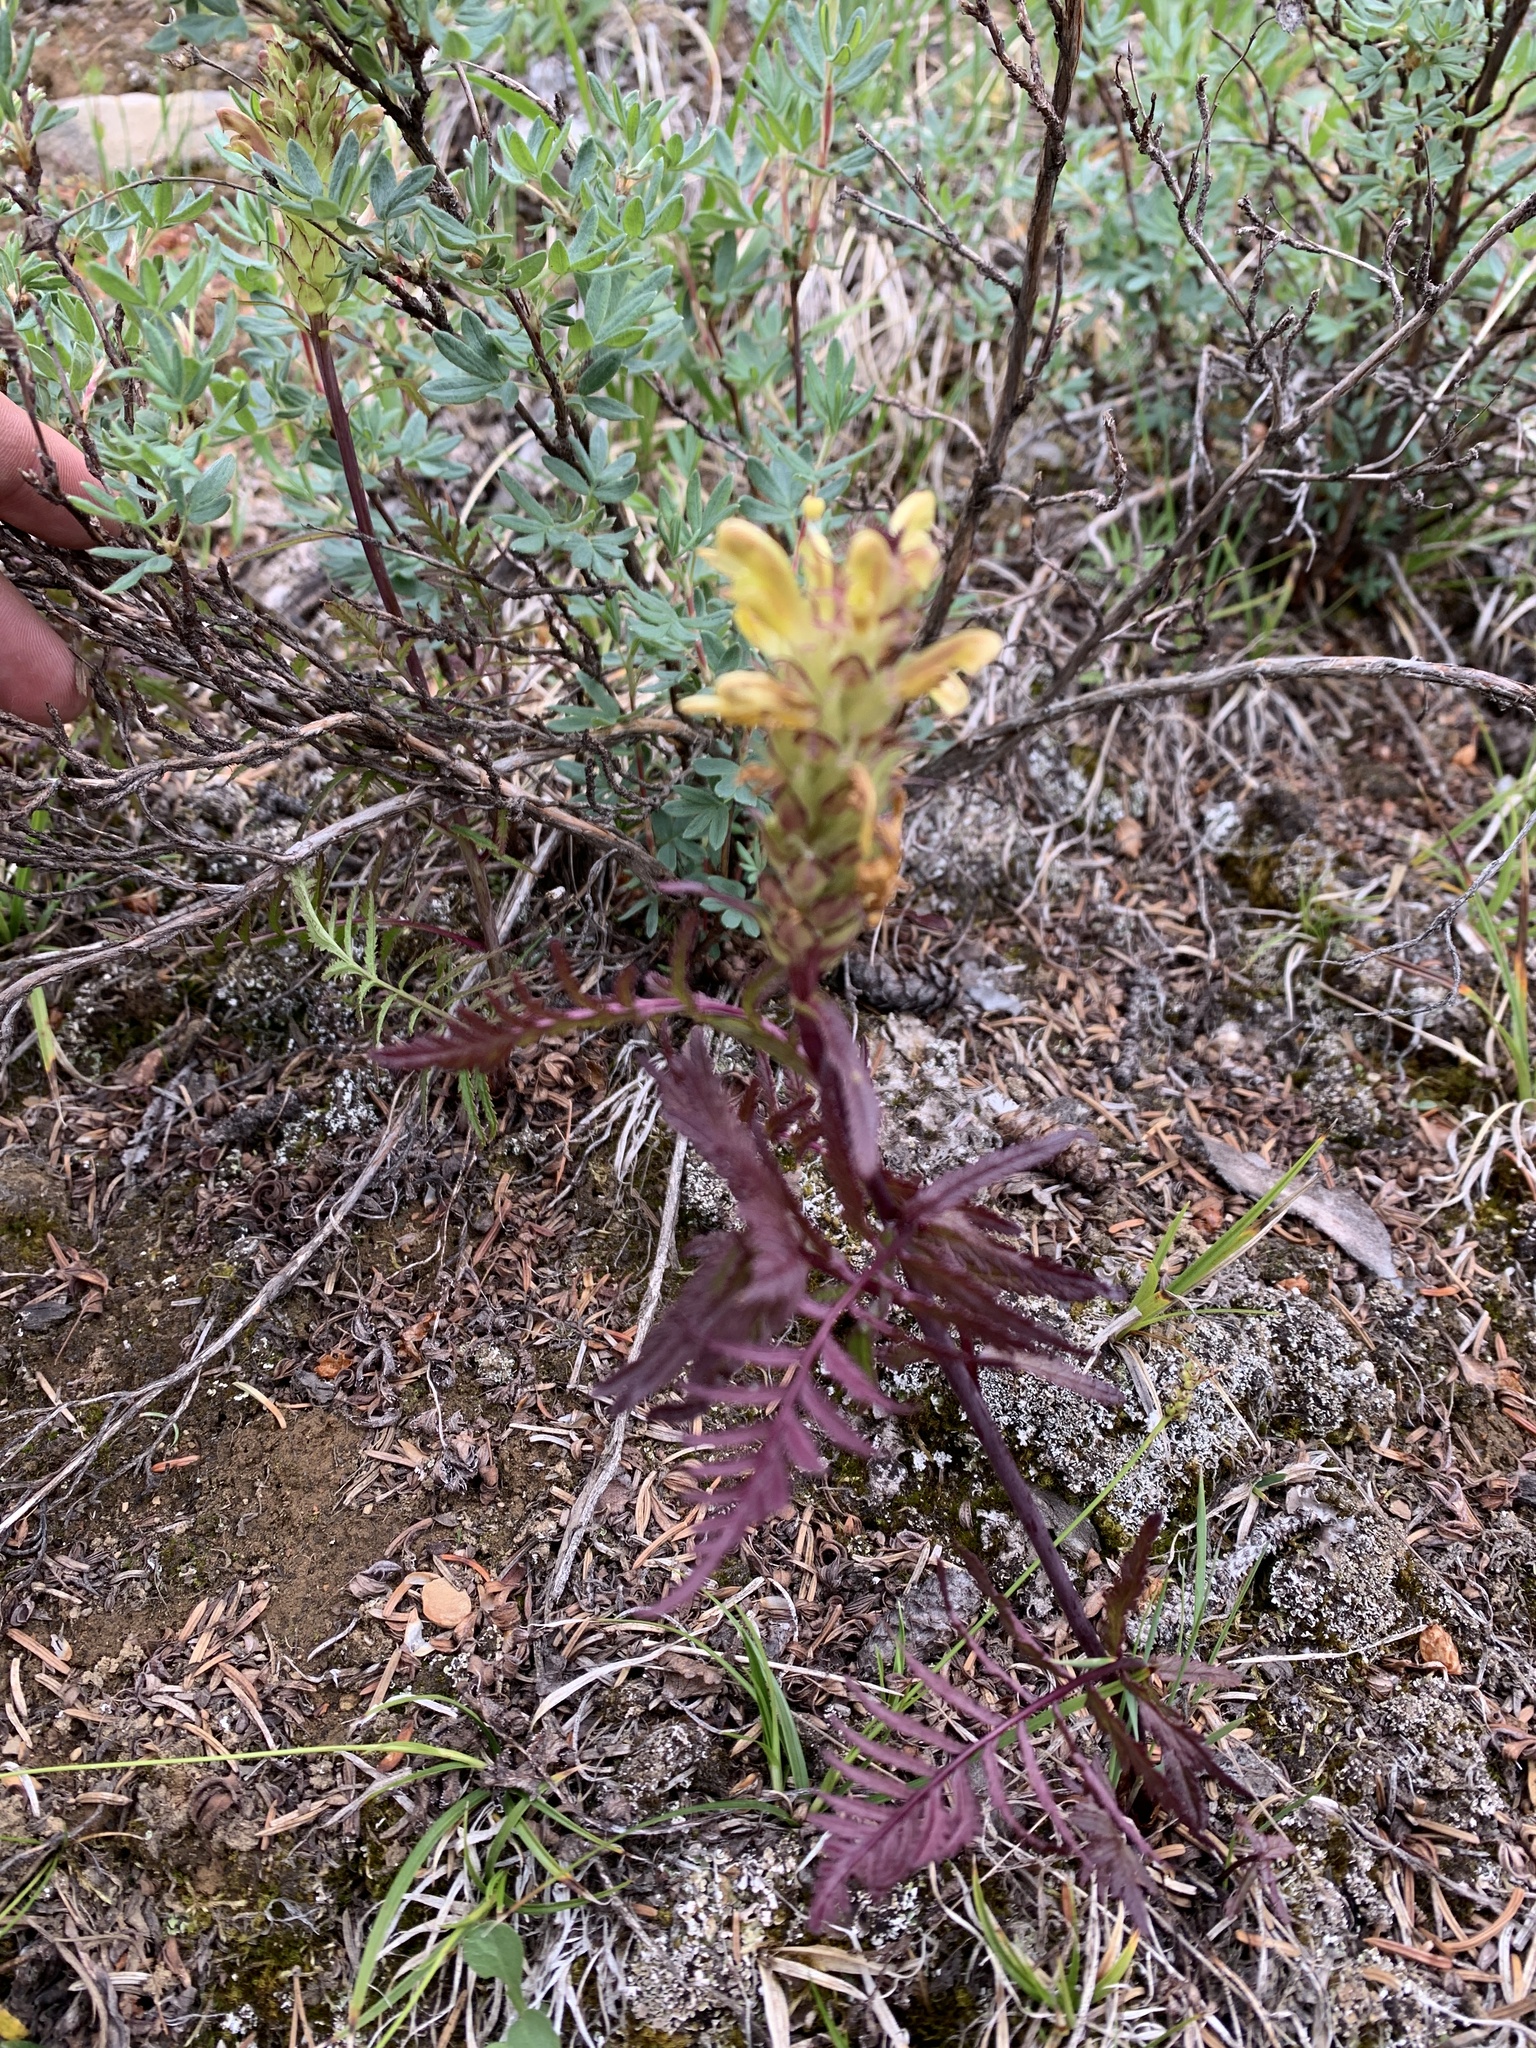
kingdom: Plantae
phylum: Tracheophyta
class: Magnoliopsida
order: Lamiales
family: Orobanchaceae
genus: Pedicularis
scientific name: Pedicularis bracteosa
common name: Bracted lousewort
